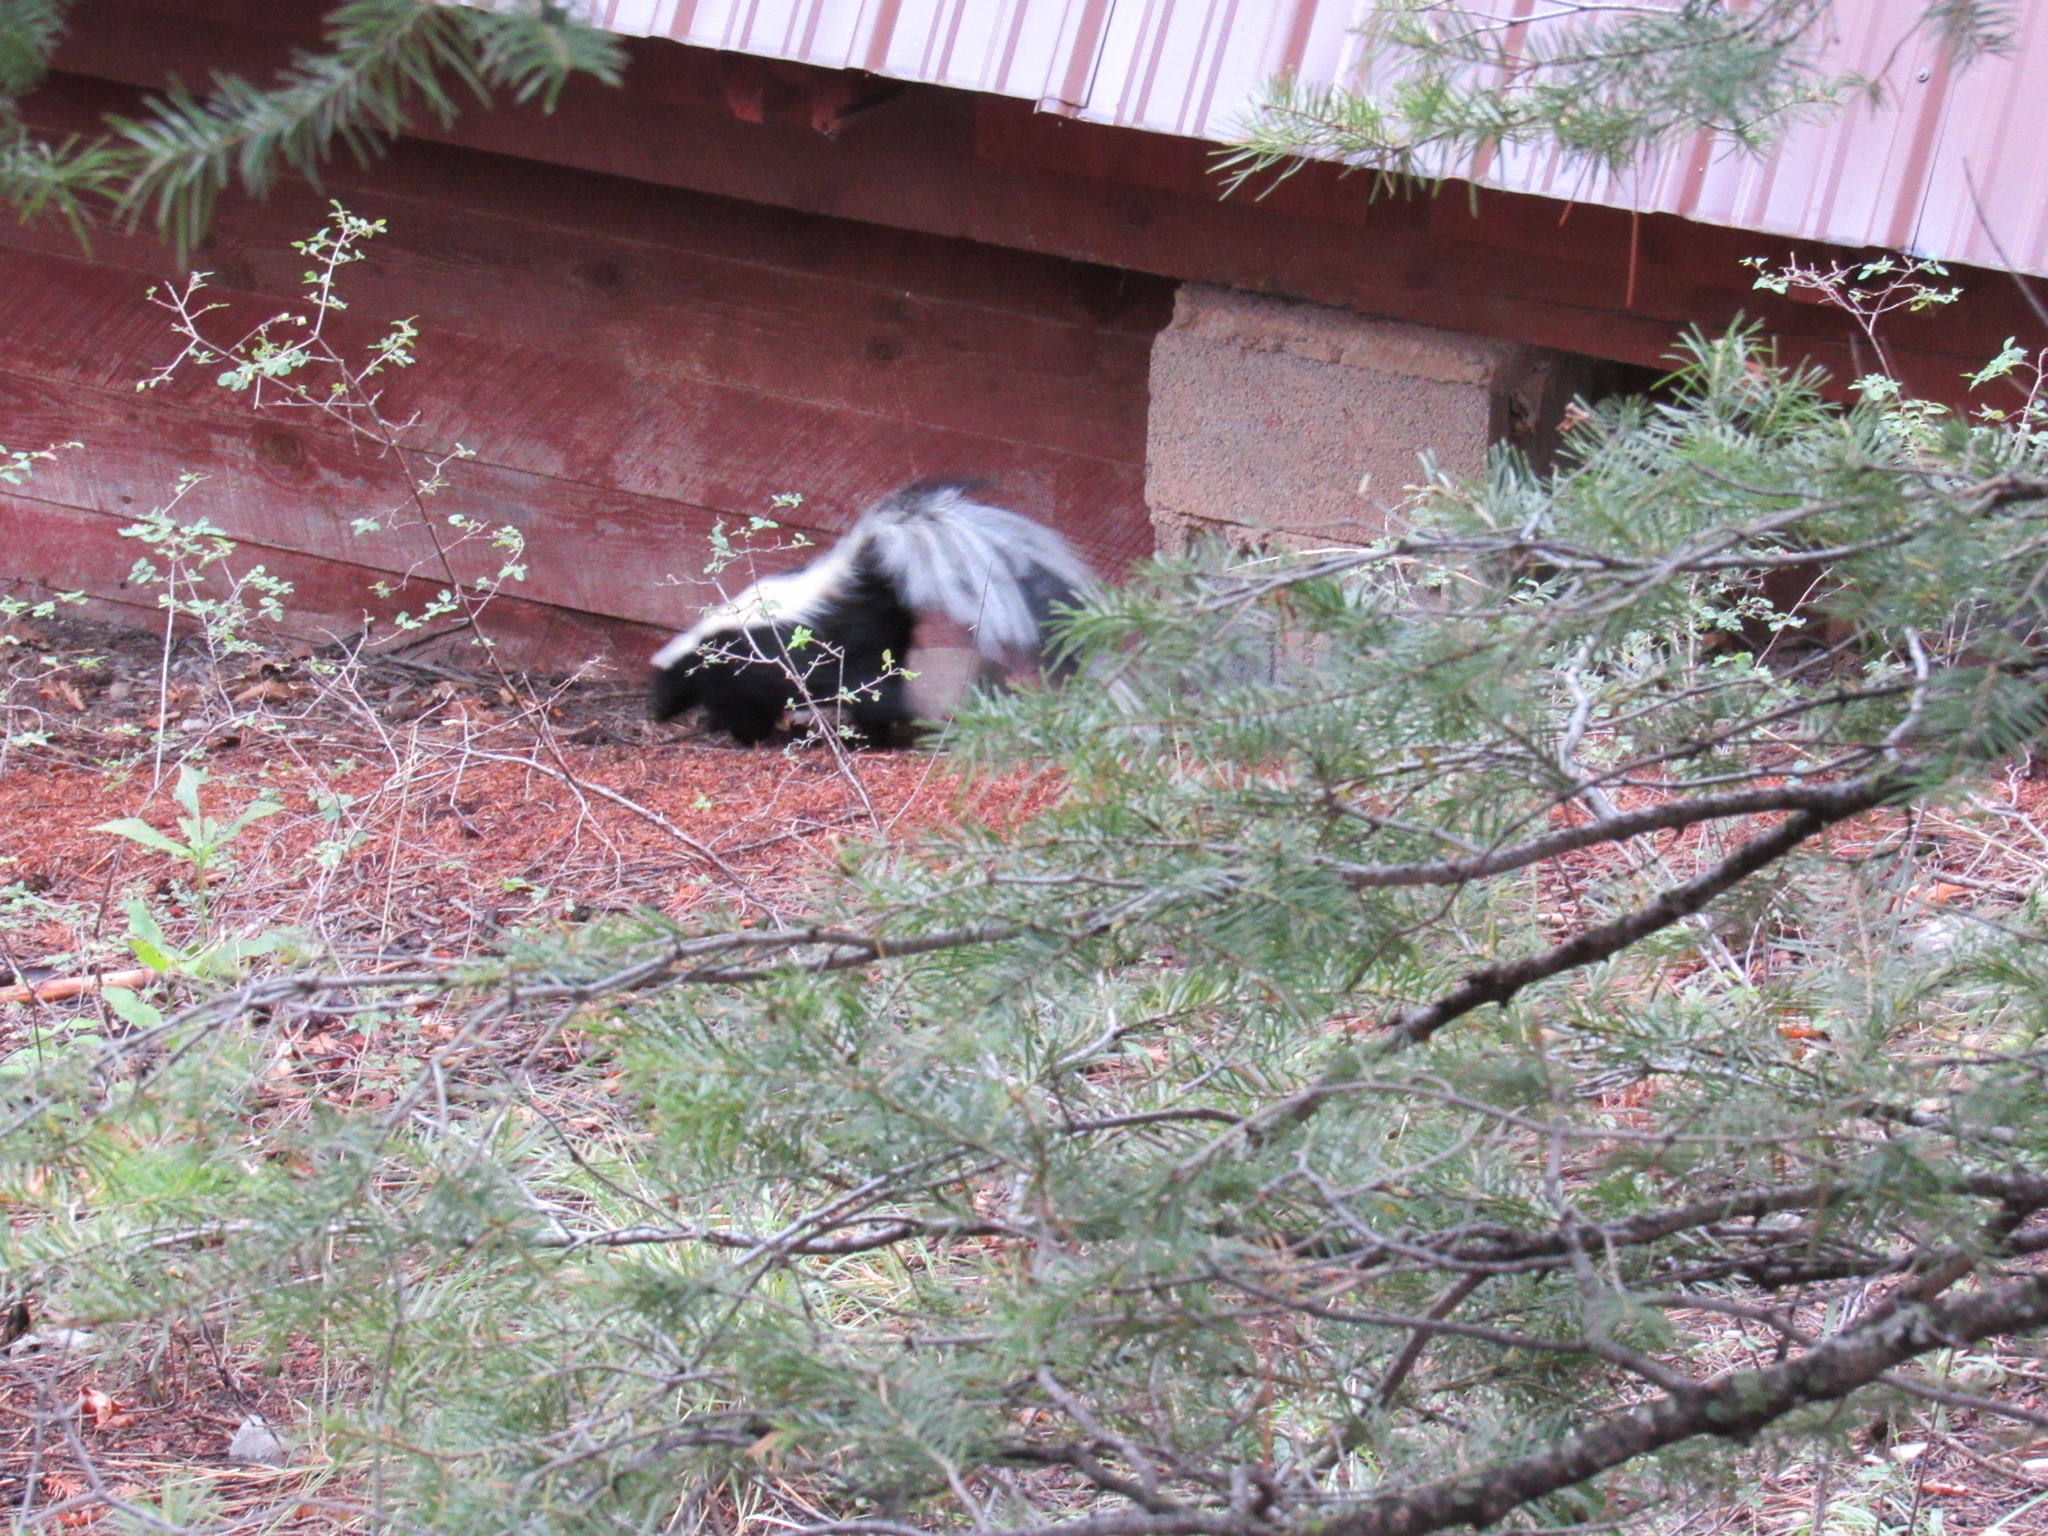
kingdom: Animalia
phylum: Chordata
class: Mammalia
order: Carnivora
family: Mephitidae
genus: Mephitis
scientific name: Mephitis mephitis
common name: Striped skunk
